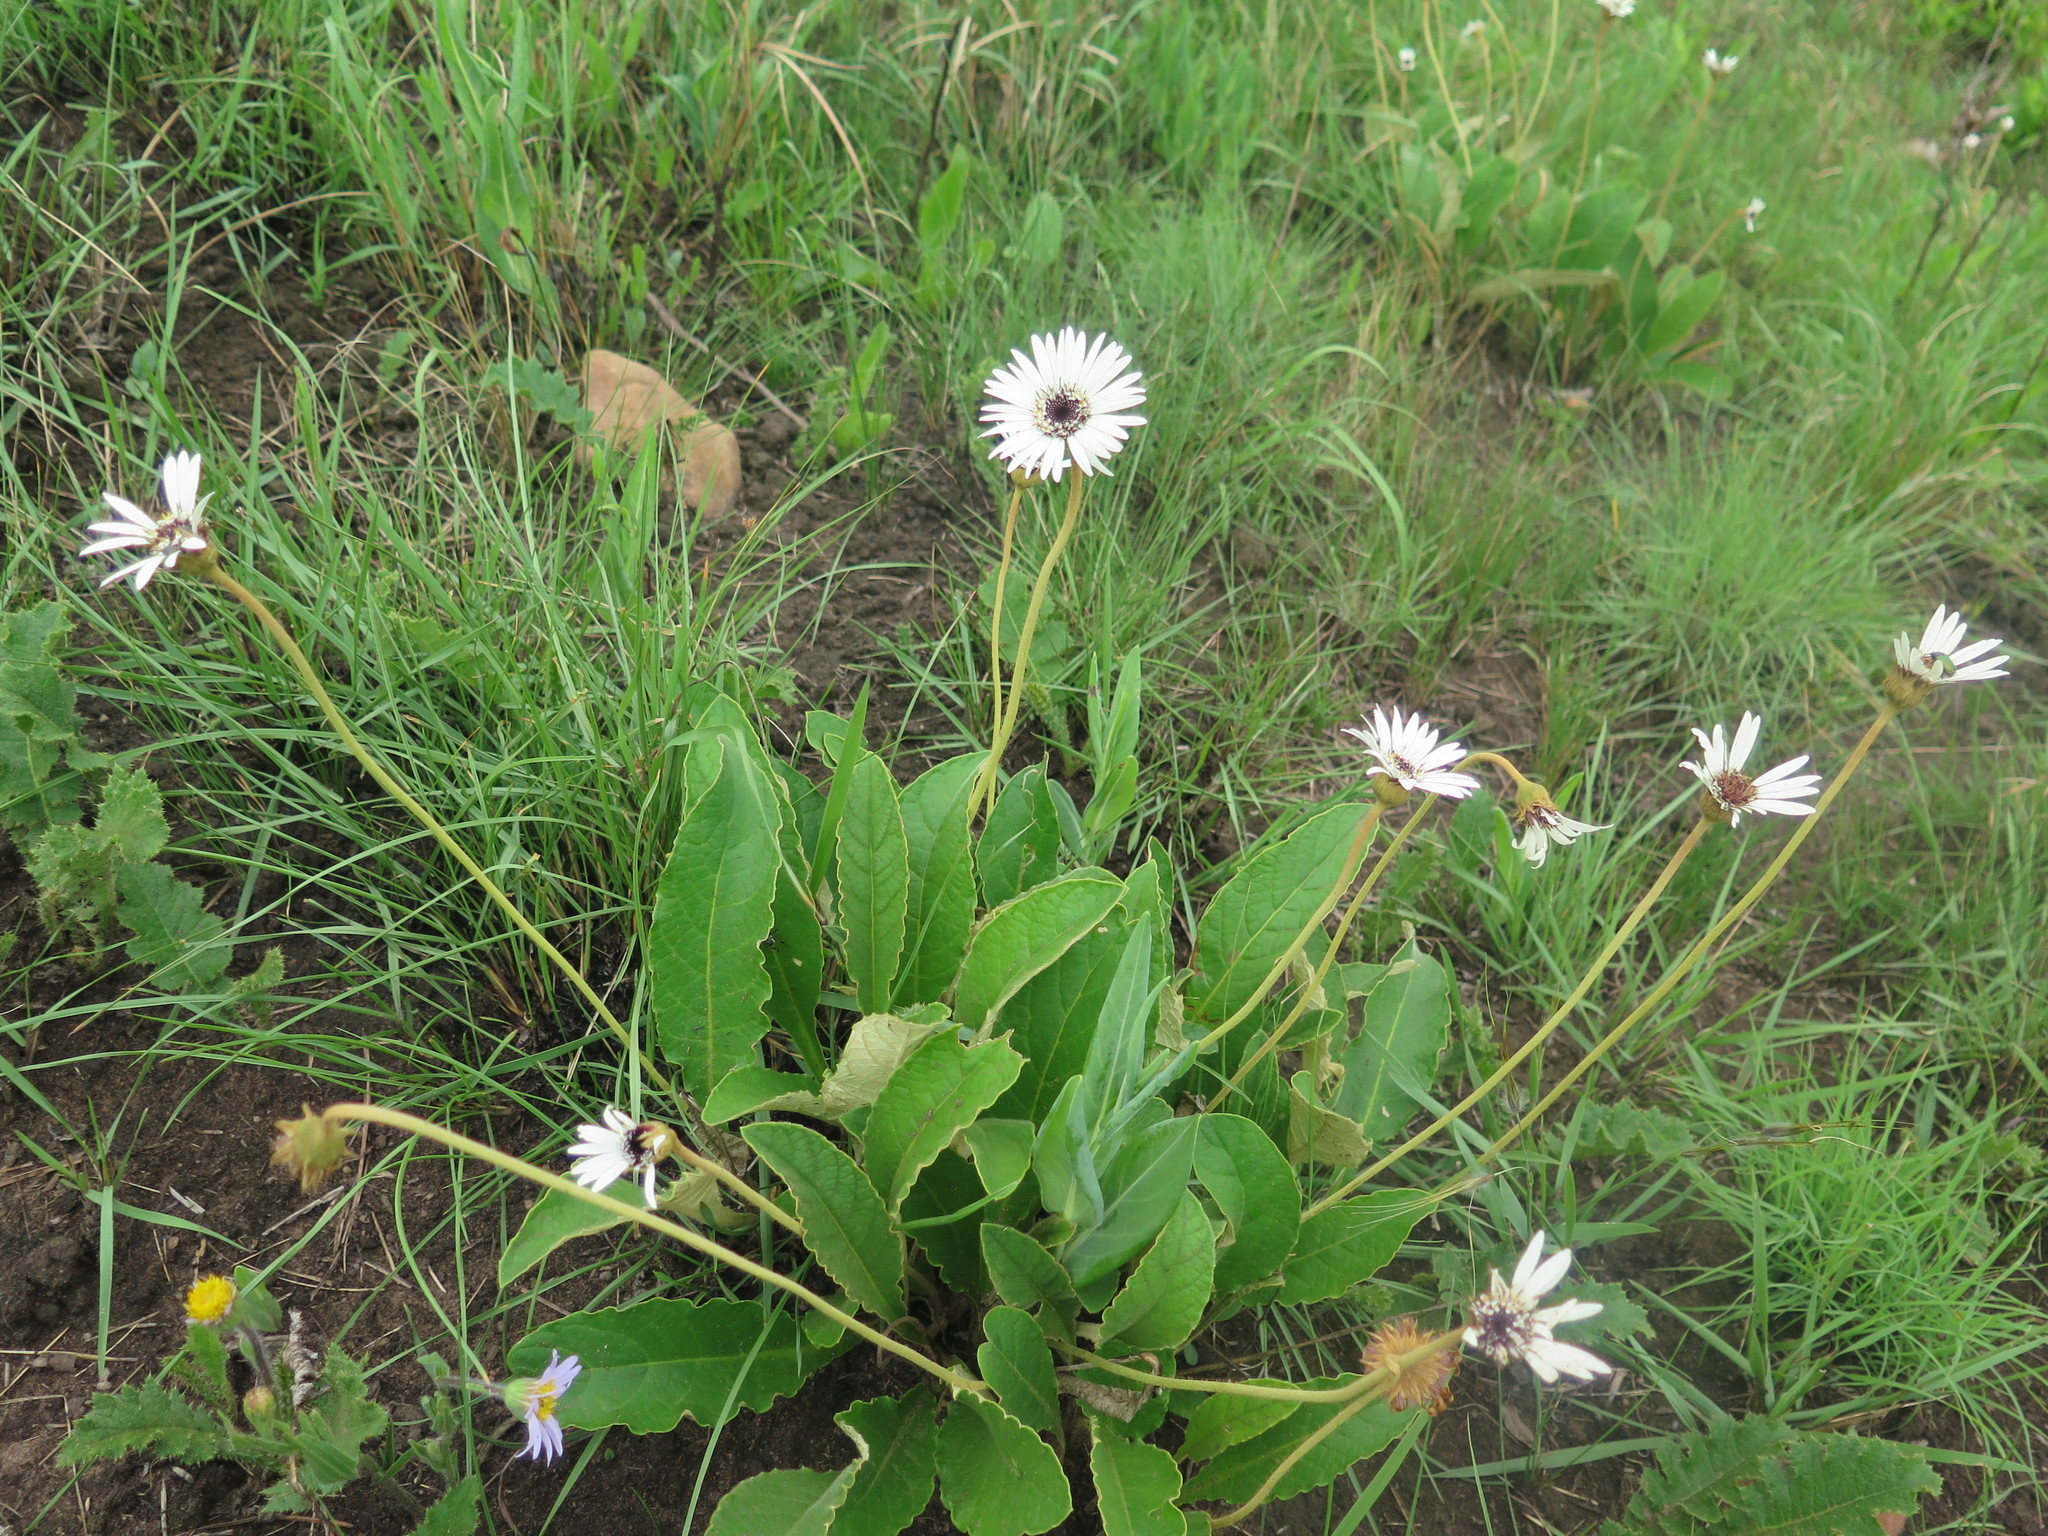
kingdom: Plantae
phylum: Tracheophyta
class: Magnoliopsida
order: Asterales
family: Asteraceae
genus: Gerbera
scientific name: Gerbera ambigua
